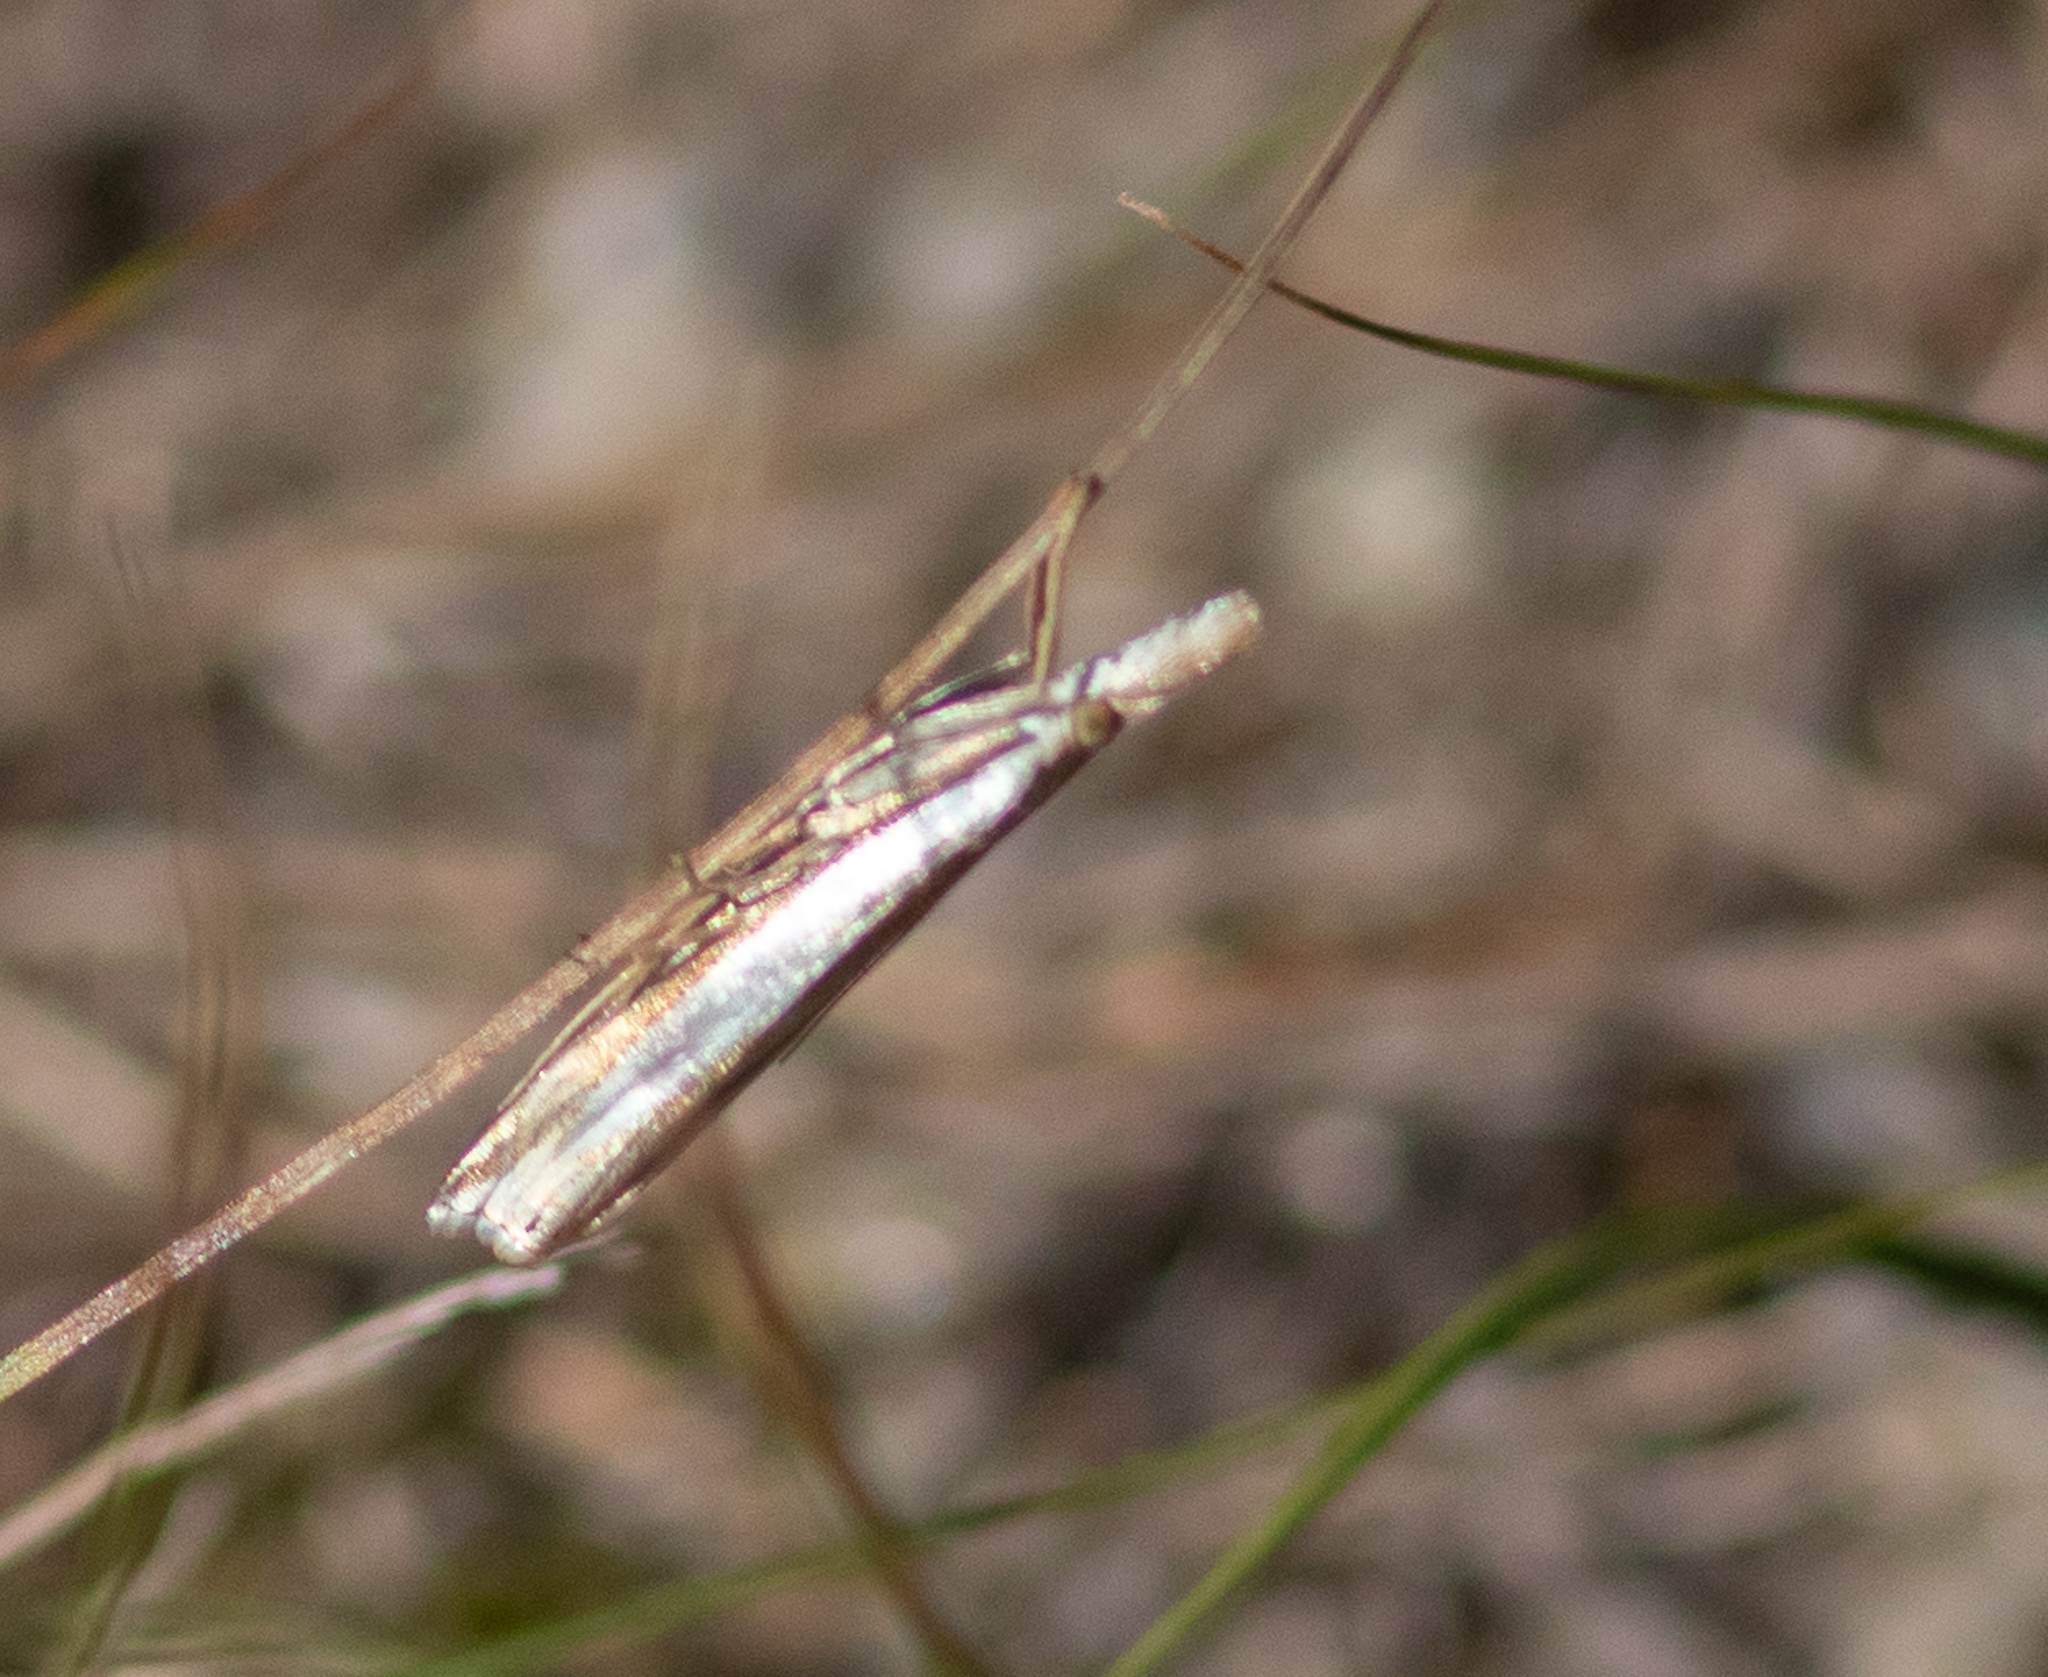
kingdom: Animalia
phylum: Arthropoda
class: Insecta
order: Lepidoptera
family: Crambidae
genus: Crambus
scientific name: Crambus praefectellus
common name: Common grass-veneer
